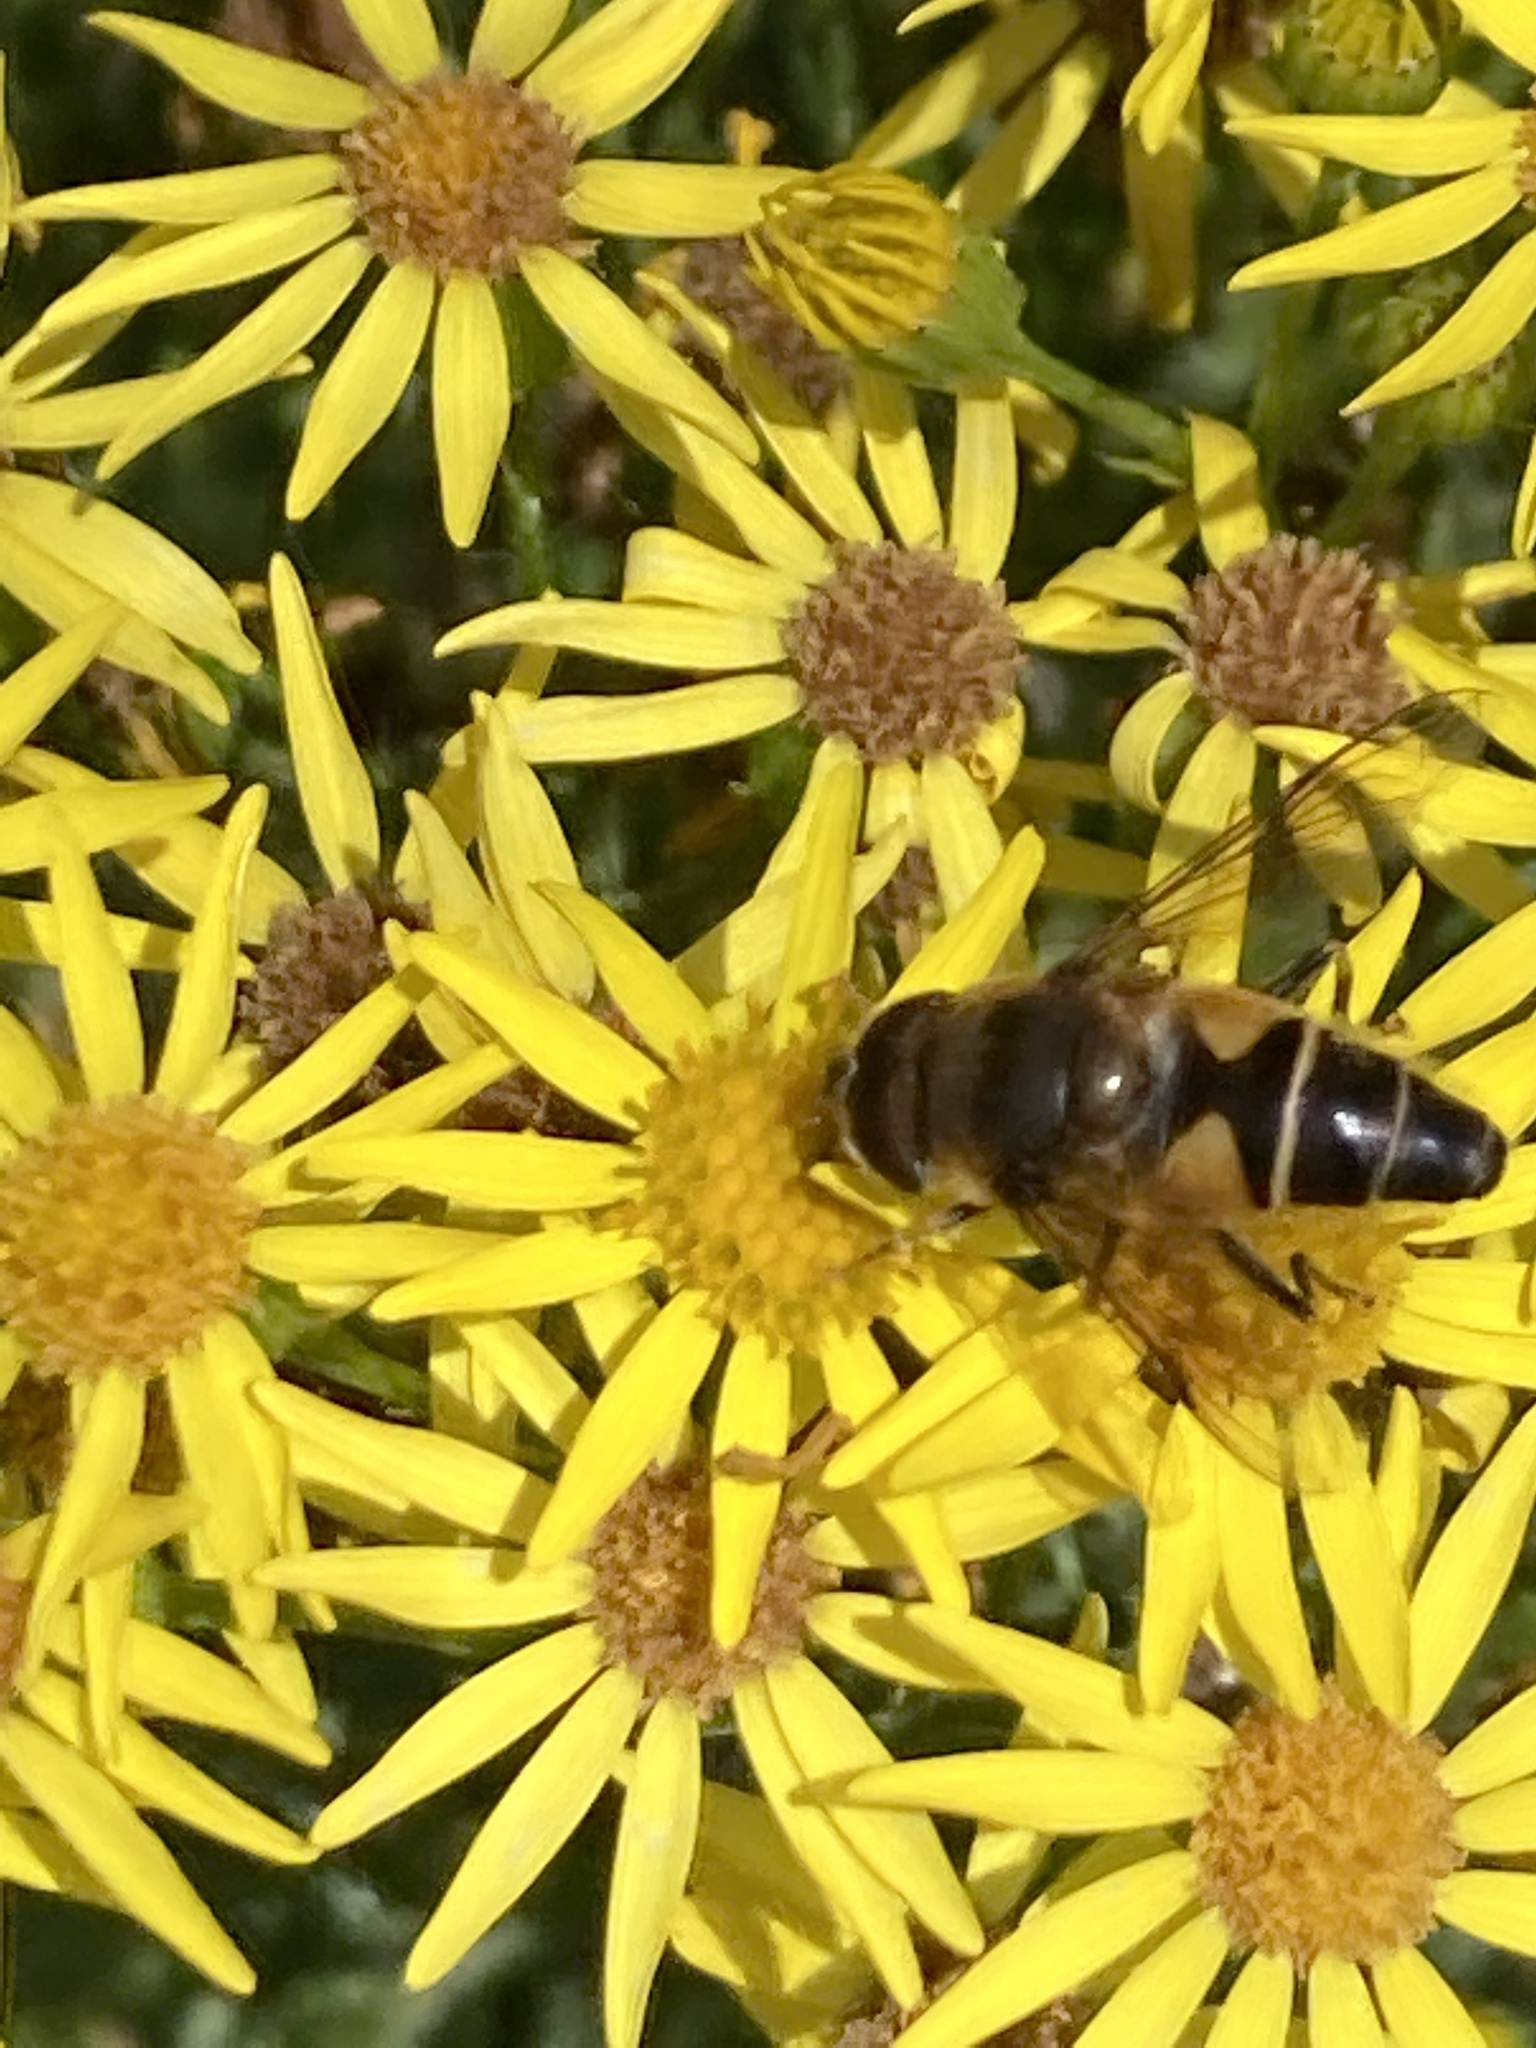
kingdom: Animalia
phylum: Arthropoda
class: Insecta
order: Diptera
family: Syrphidae
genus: Eristalis
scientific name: Eristalis pertinax
